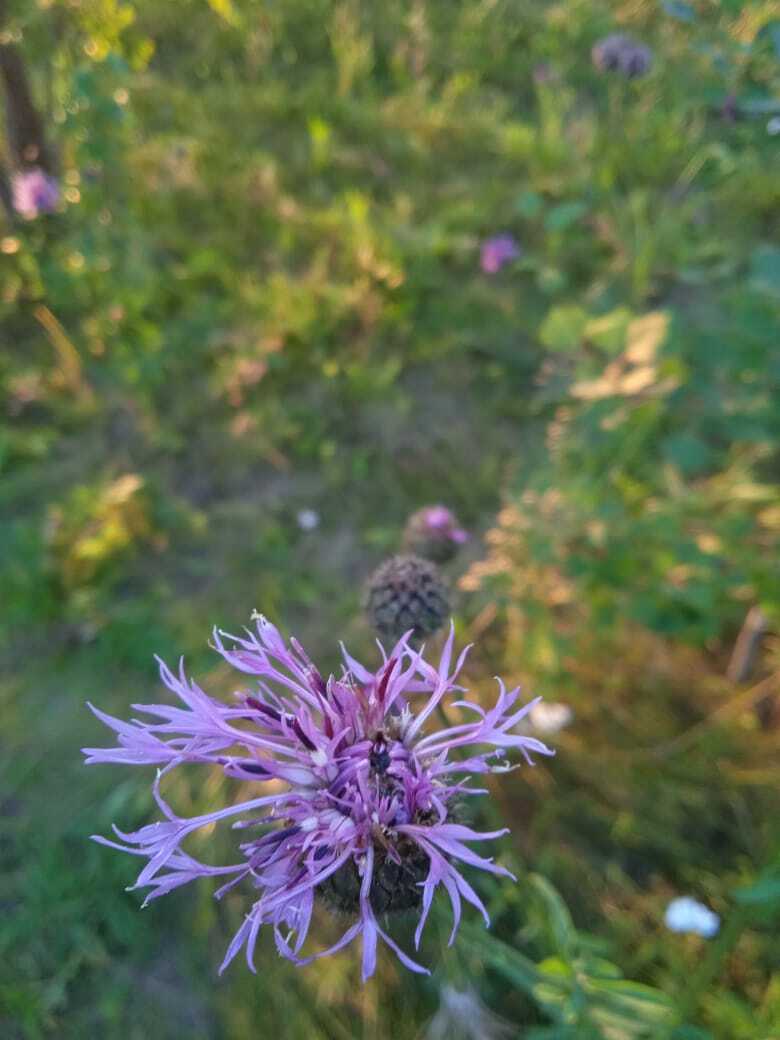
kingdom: Plantae
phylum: Tracheophyta
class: Magnoliopsida
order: Asterales
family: Asteraceae
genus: Centaurea
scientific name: Centaurea scabiosa
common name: Greater knapweed
